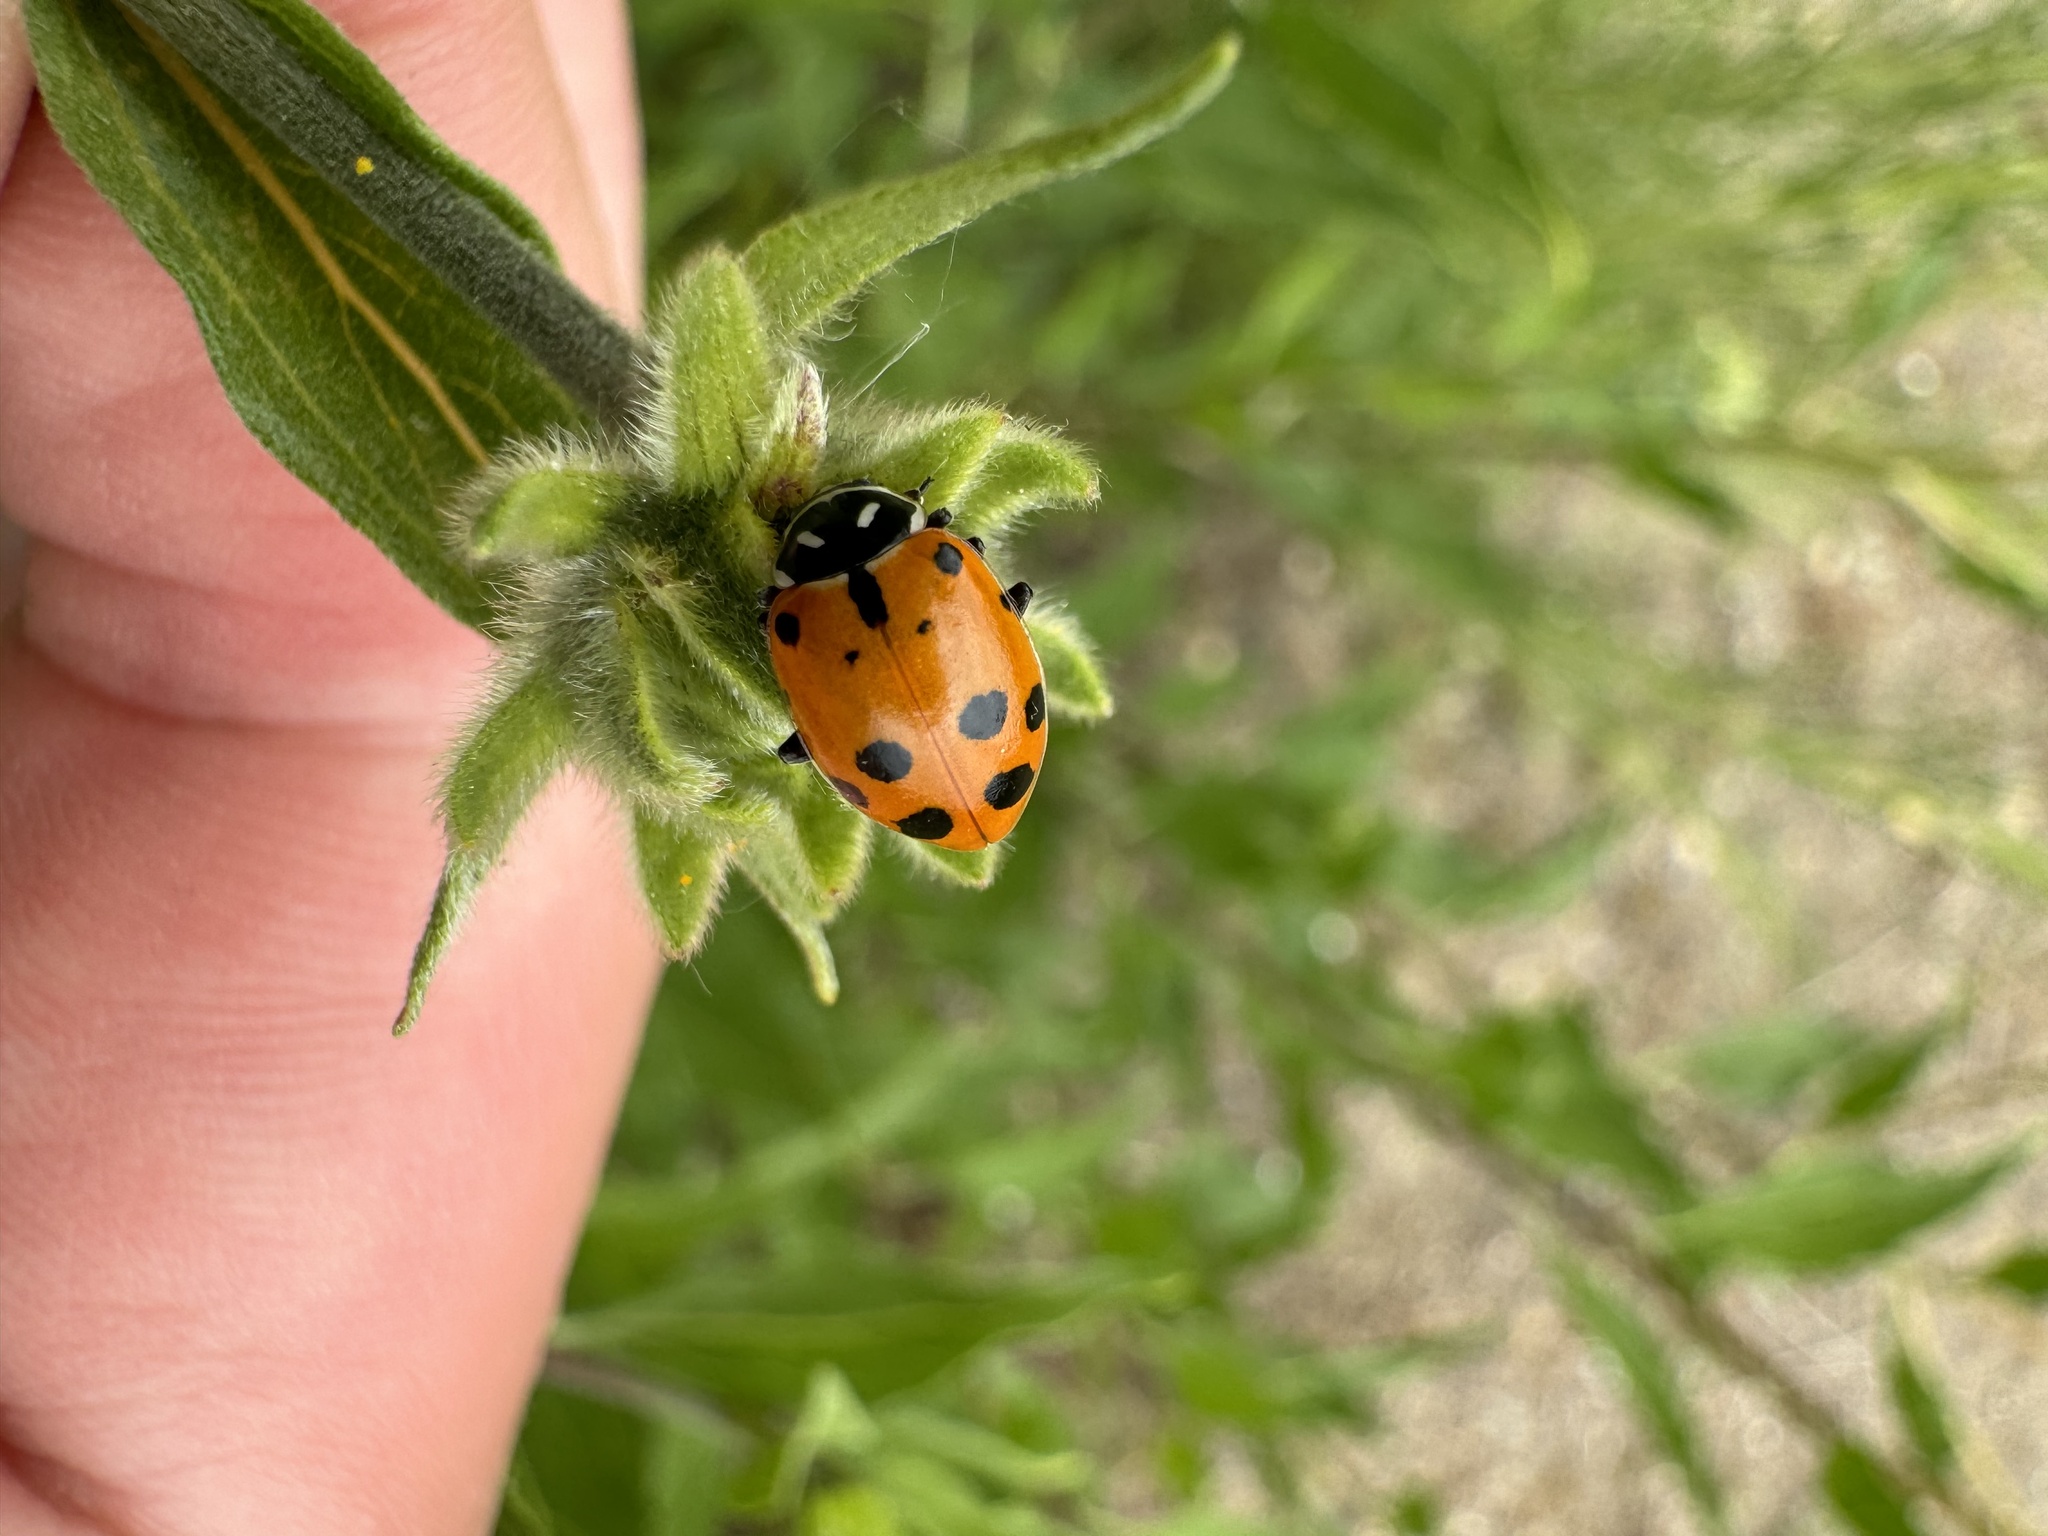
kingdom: Animalia
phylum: Arthropoda
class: Insecta
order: Coleoptera
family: Coccinellidae
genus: Hippodamia
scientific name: Hippodamia convergens
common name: Convergent lady beetle
